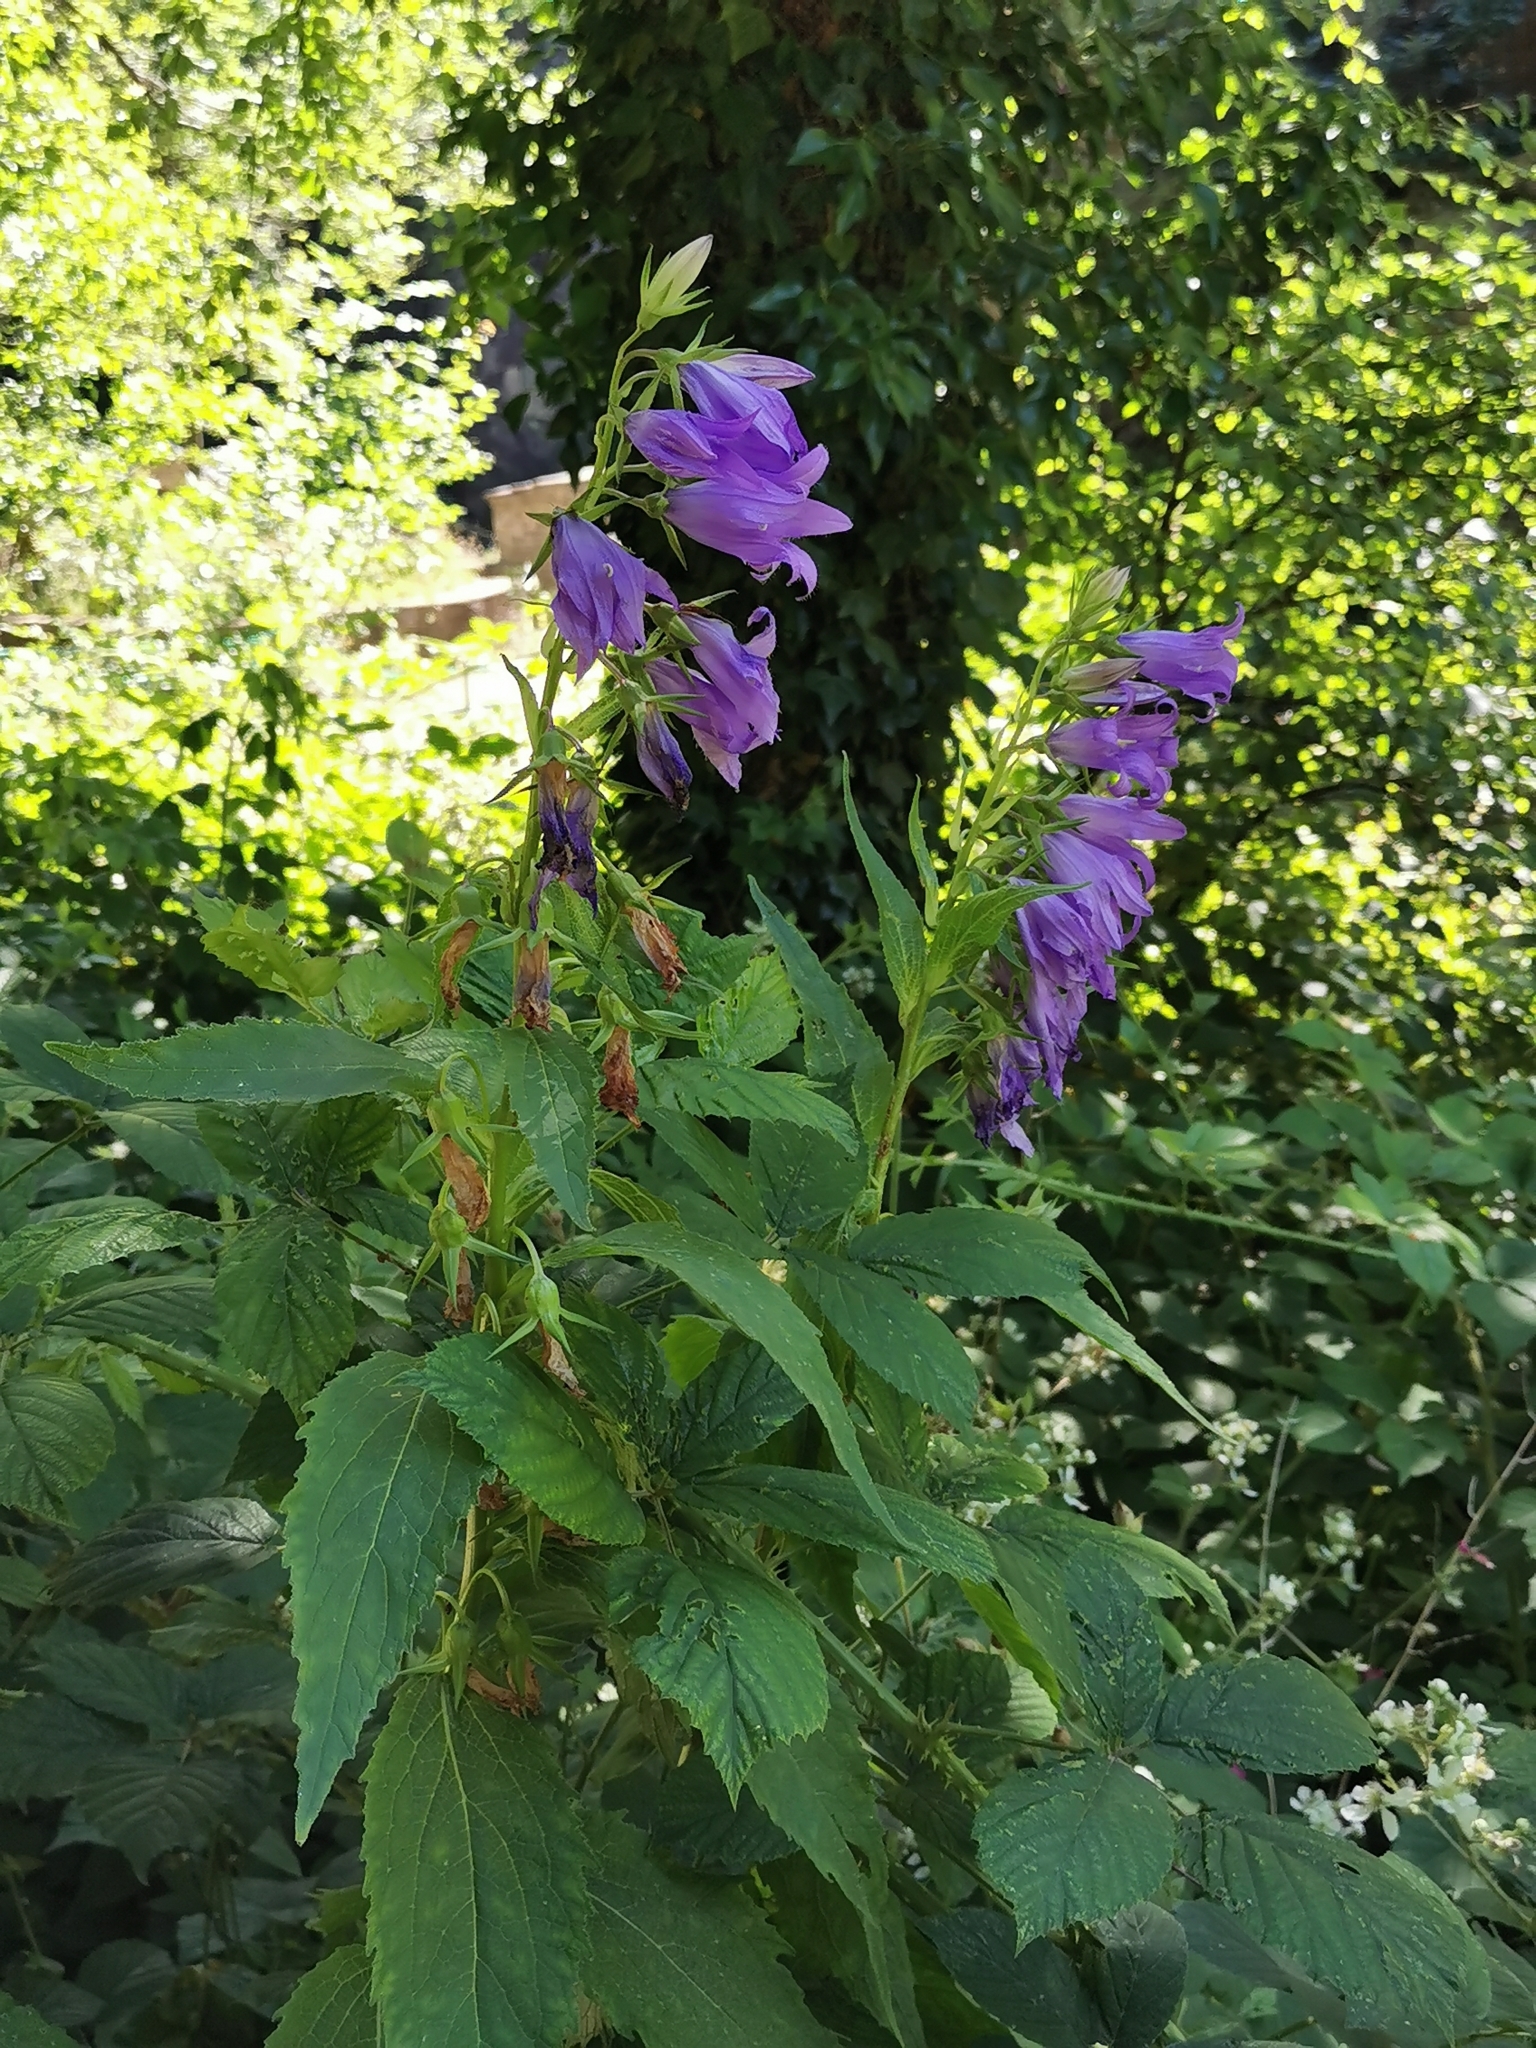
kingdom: Plantae
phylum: Tracheophyta
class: Magnoliopsida
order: Asterales
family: Campanulaceae
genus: Campanula
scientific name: Campanula latifolia
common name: Giant bellflower
